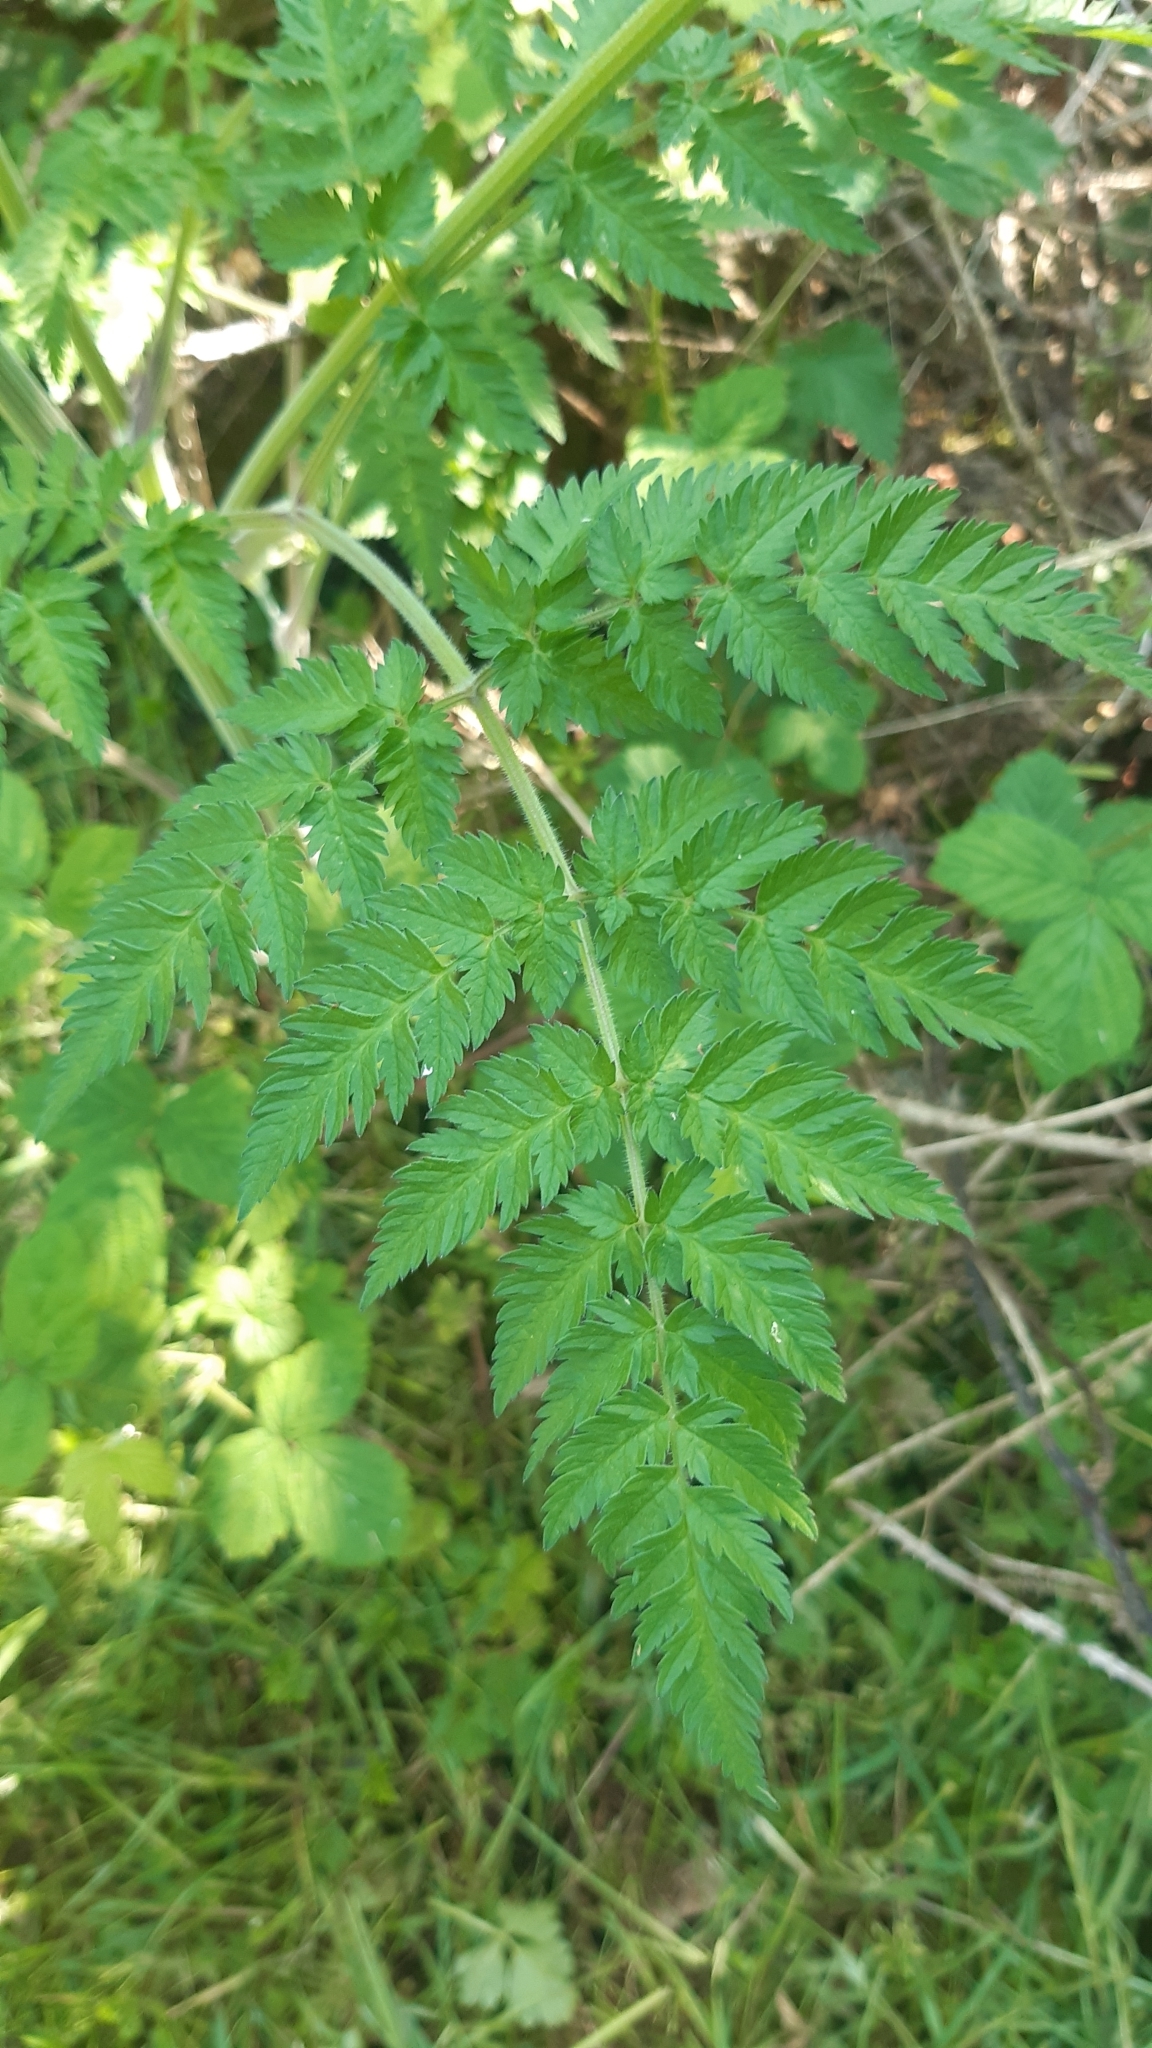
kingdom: Plantae
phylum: Tracheophyta
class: Magnoliopsida
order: Apiales
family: Apiaceae
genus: Anthriscus
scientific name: Anthriscus sylvestris
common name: Cow parsley
